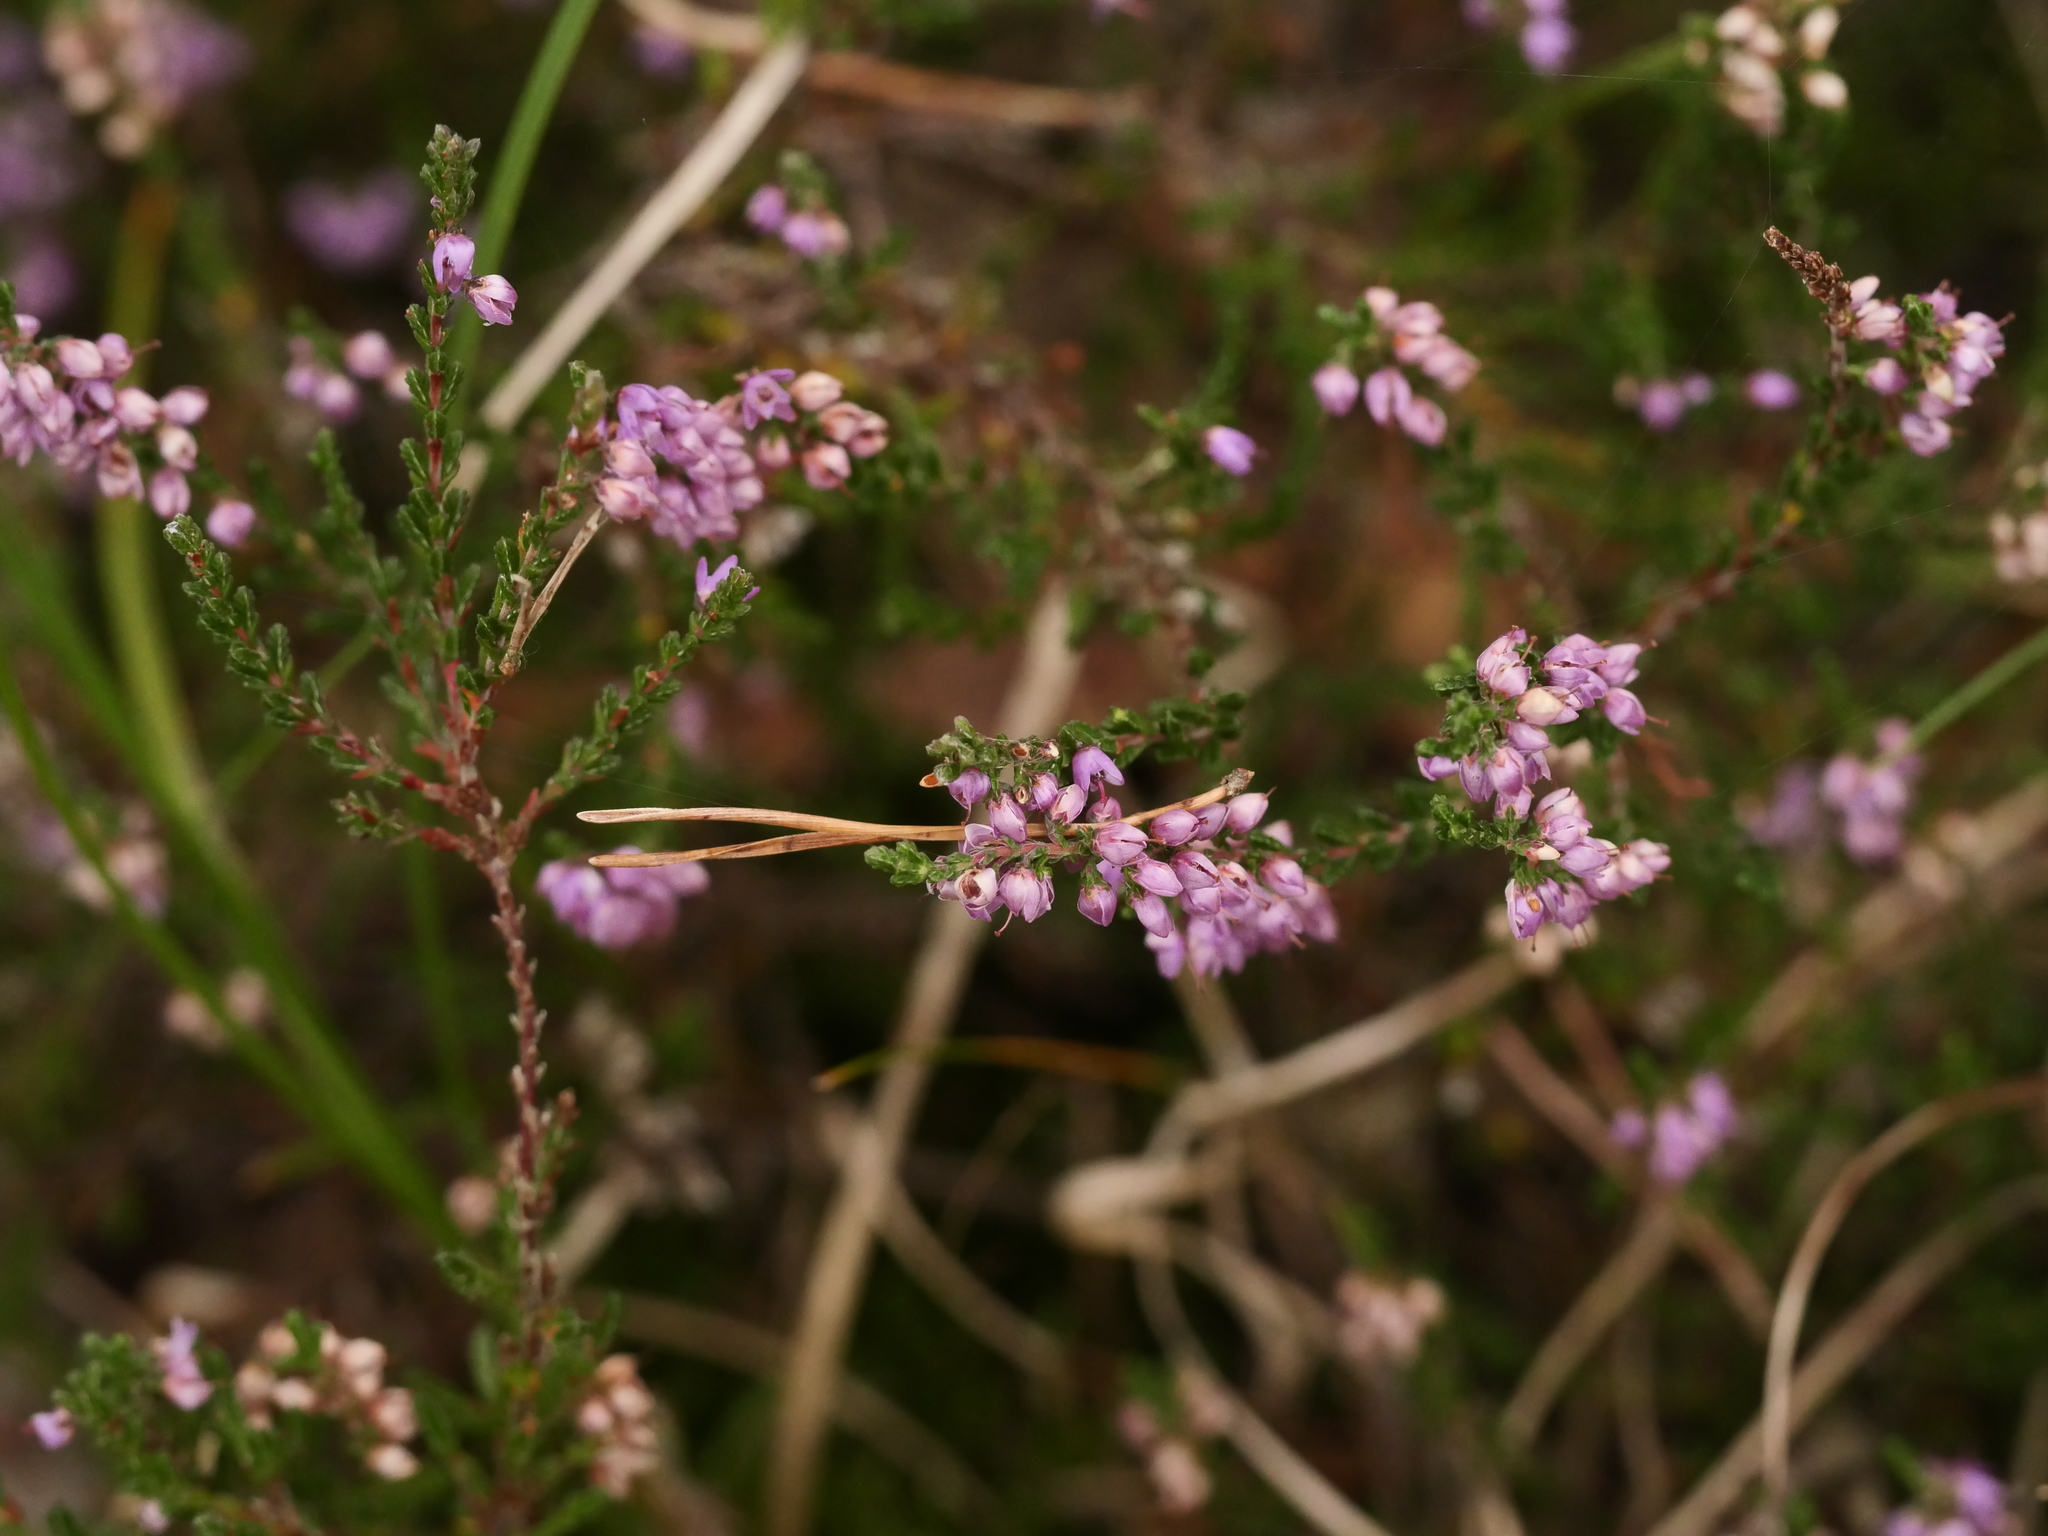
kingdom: Plantae
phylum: Tracheophyta
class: Magnoliopsida
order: Ericales
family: Ericaceae
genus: Calluna
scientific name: Calluna vulgaris
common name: Heather
